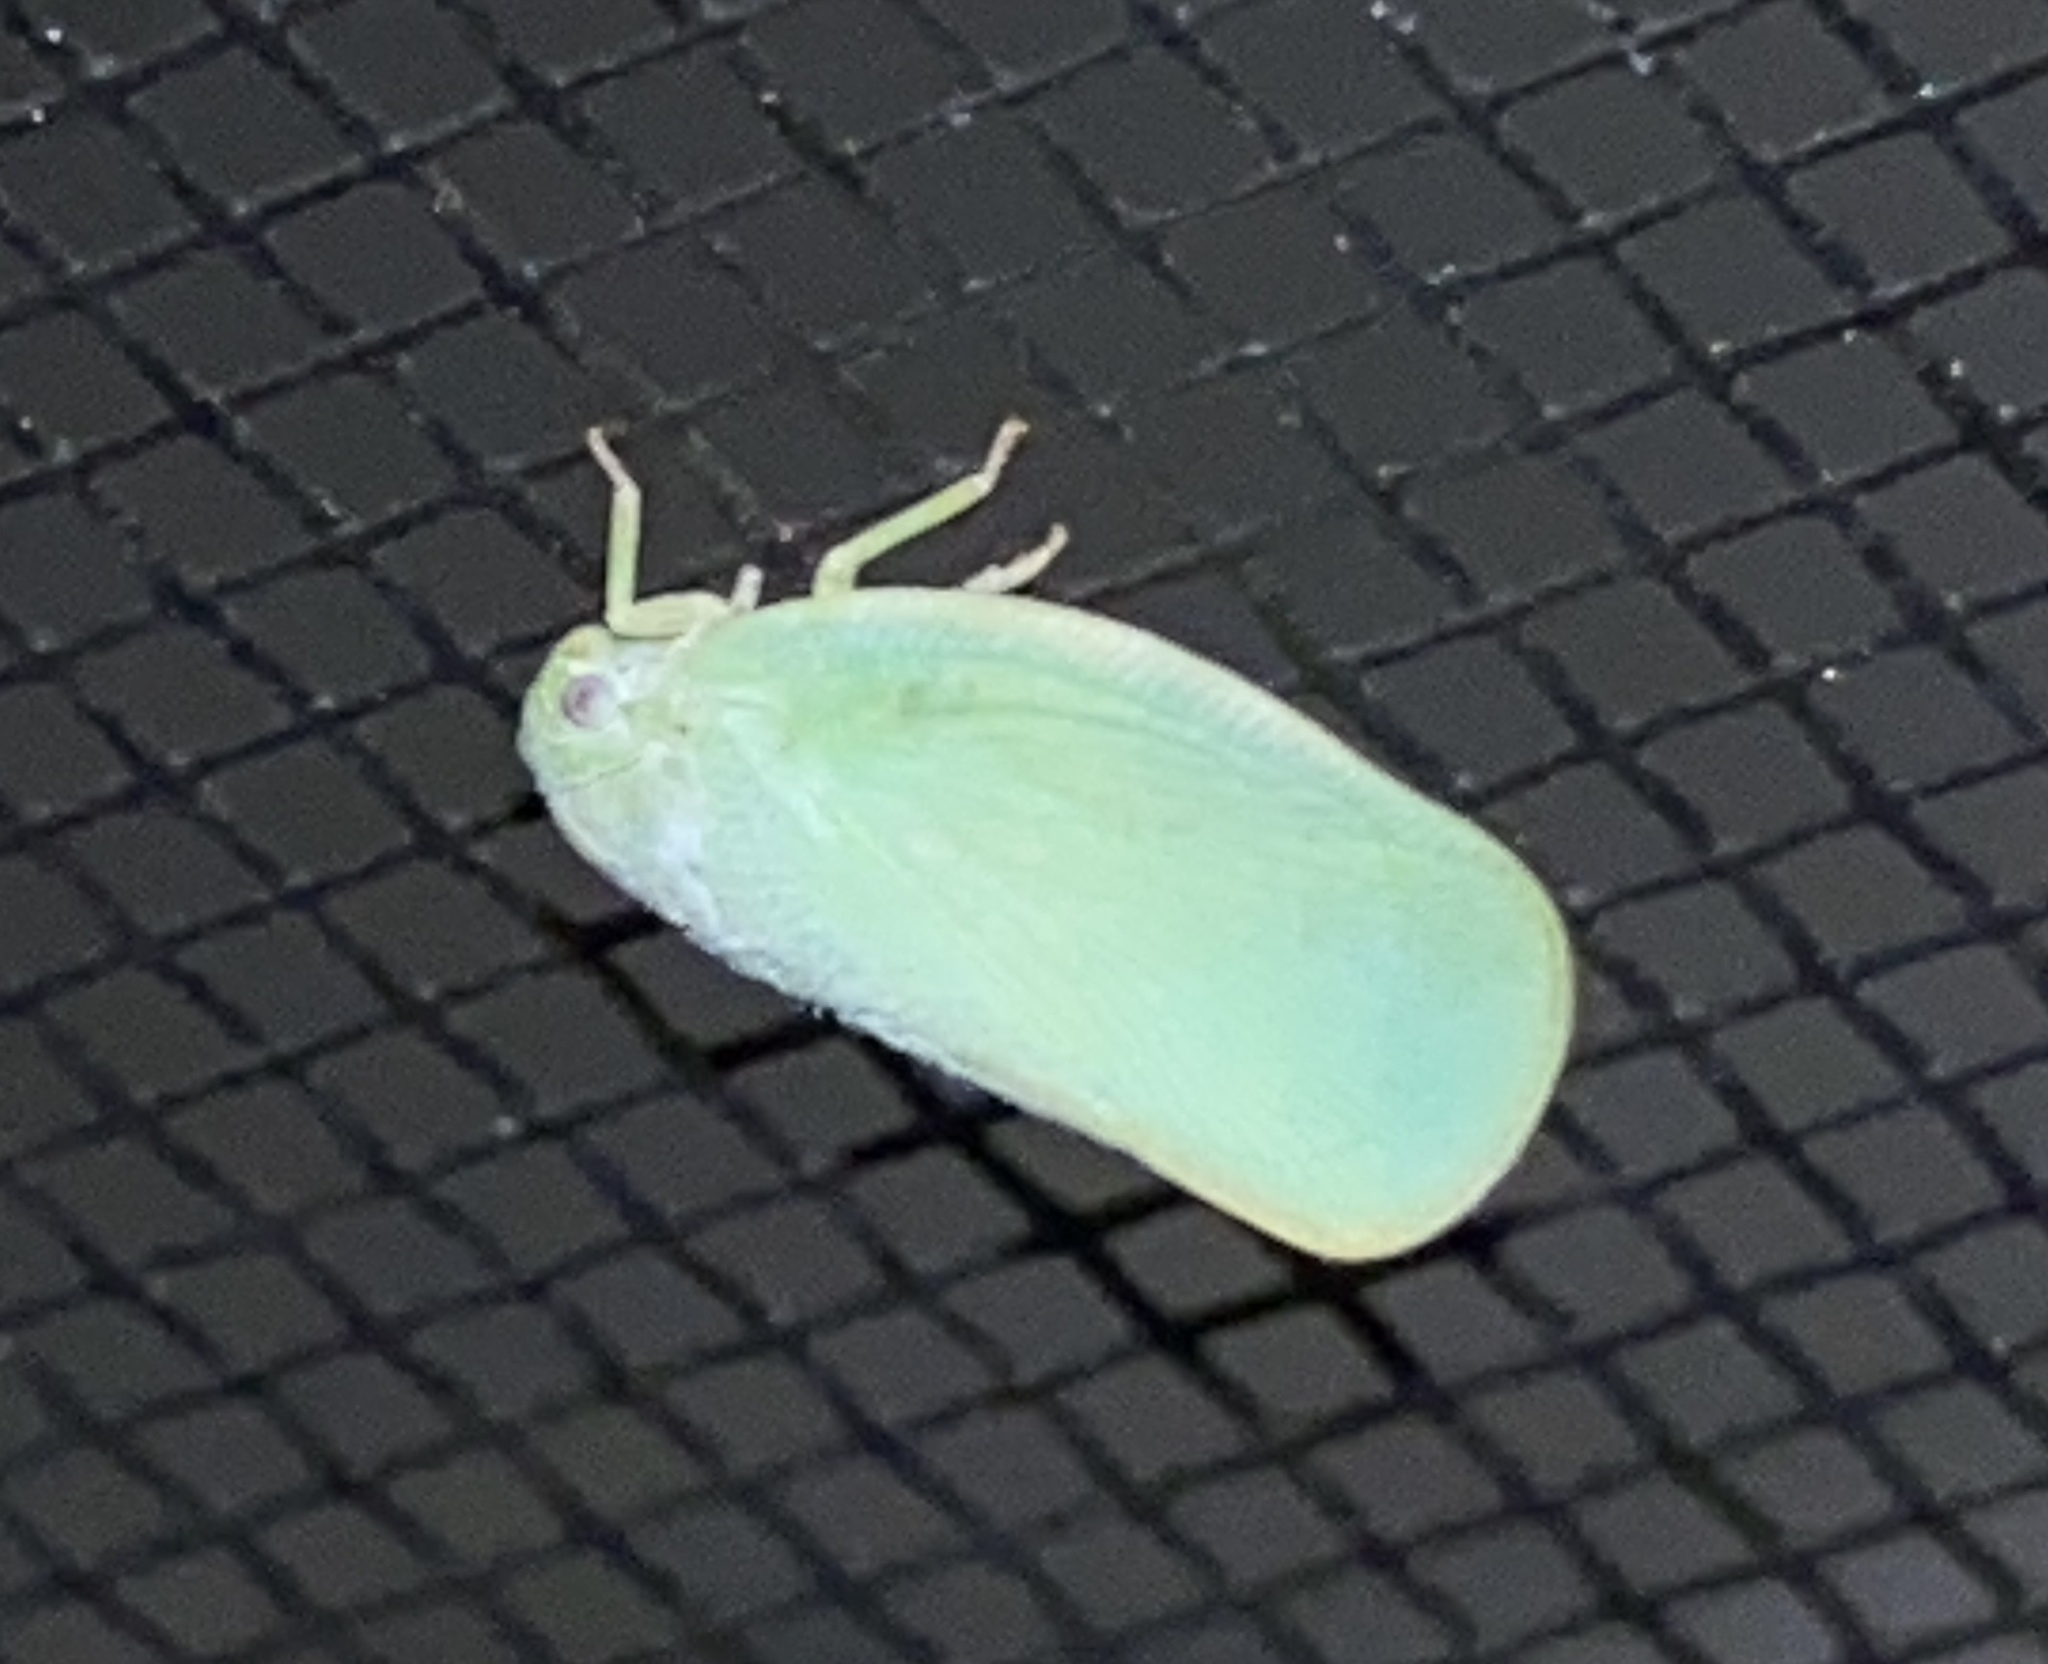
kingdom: Animalia
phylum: Arthropoda
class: Insecta
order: Hemiptera
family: Flatidae
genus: Ormenoides
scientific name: Ormenoides venusta
